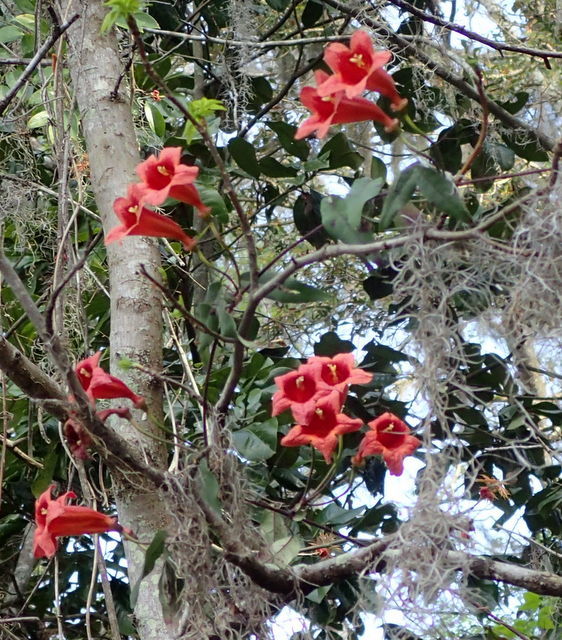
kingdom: Plantae
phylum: Tracheophyta
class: Magnoliopsida
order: Lamiales
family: Bignoniaceae
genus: Bignonia
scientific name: Bignonia capreolata
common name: Crossvine
